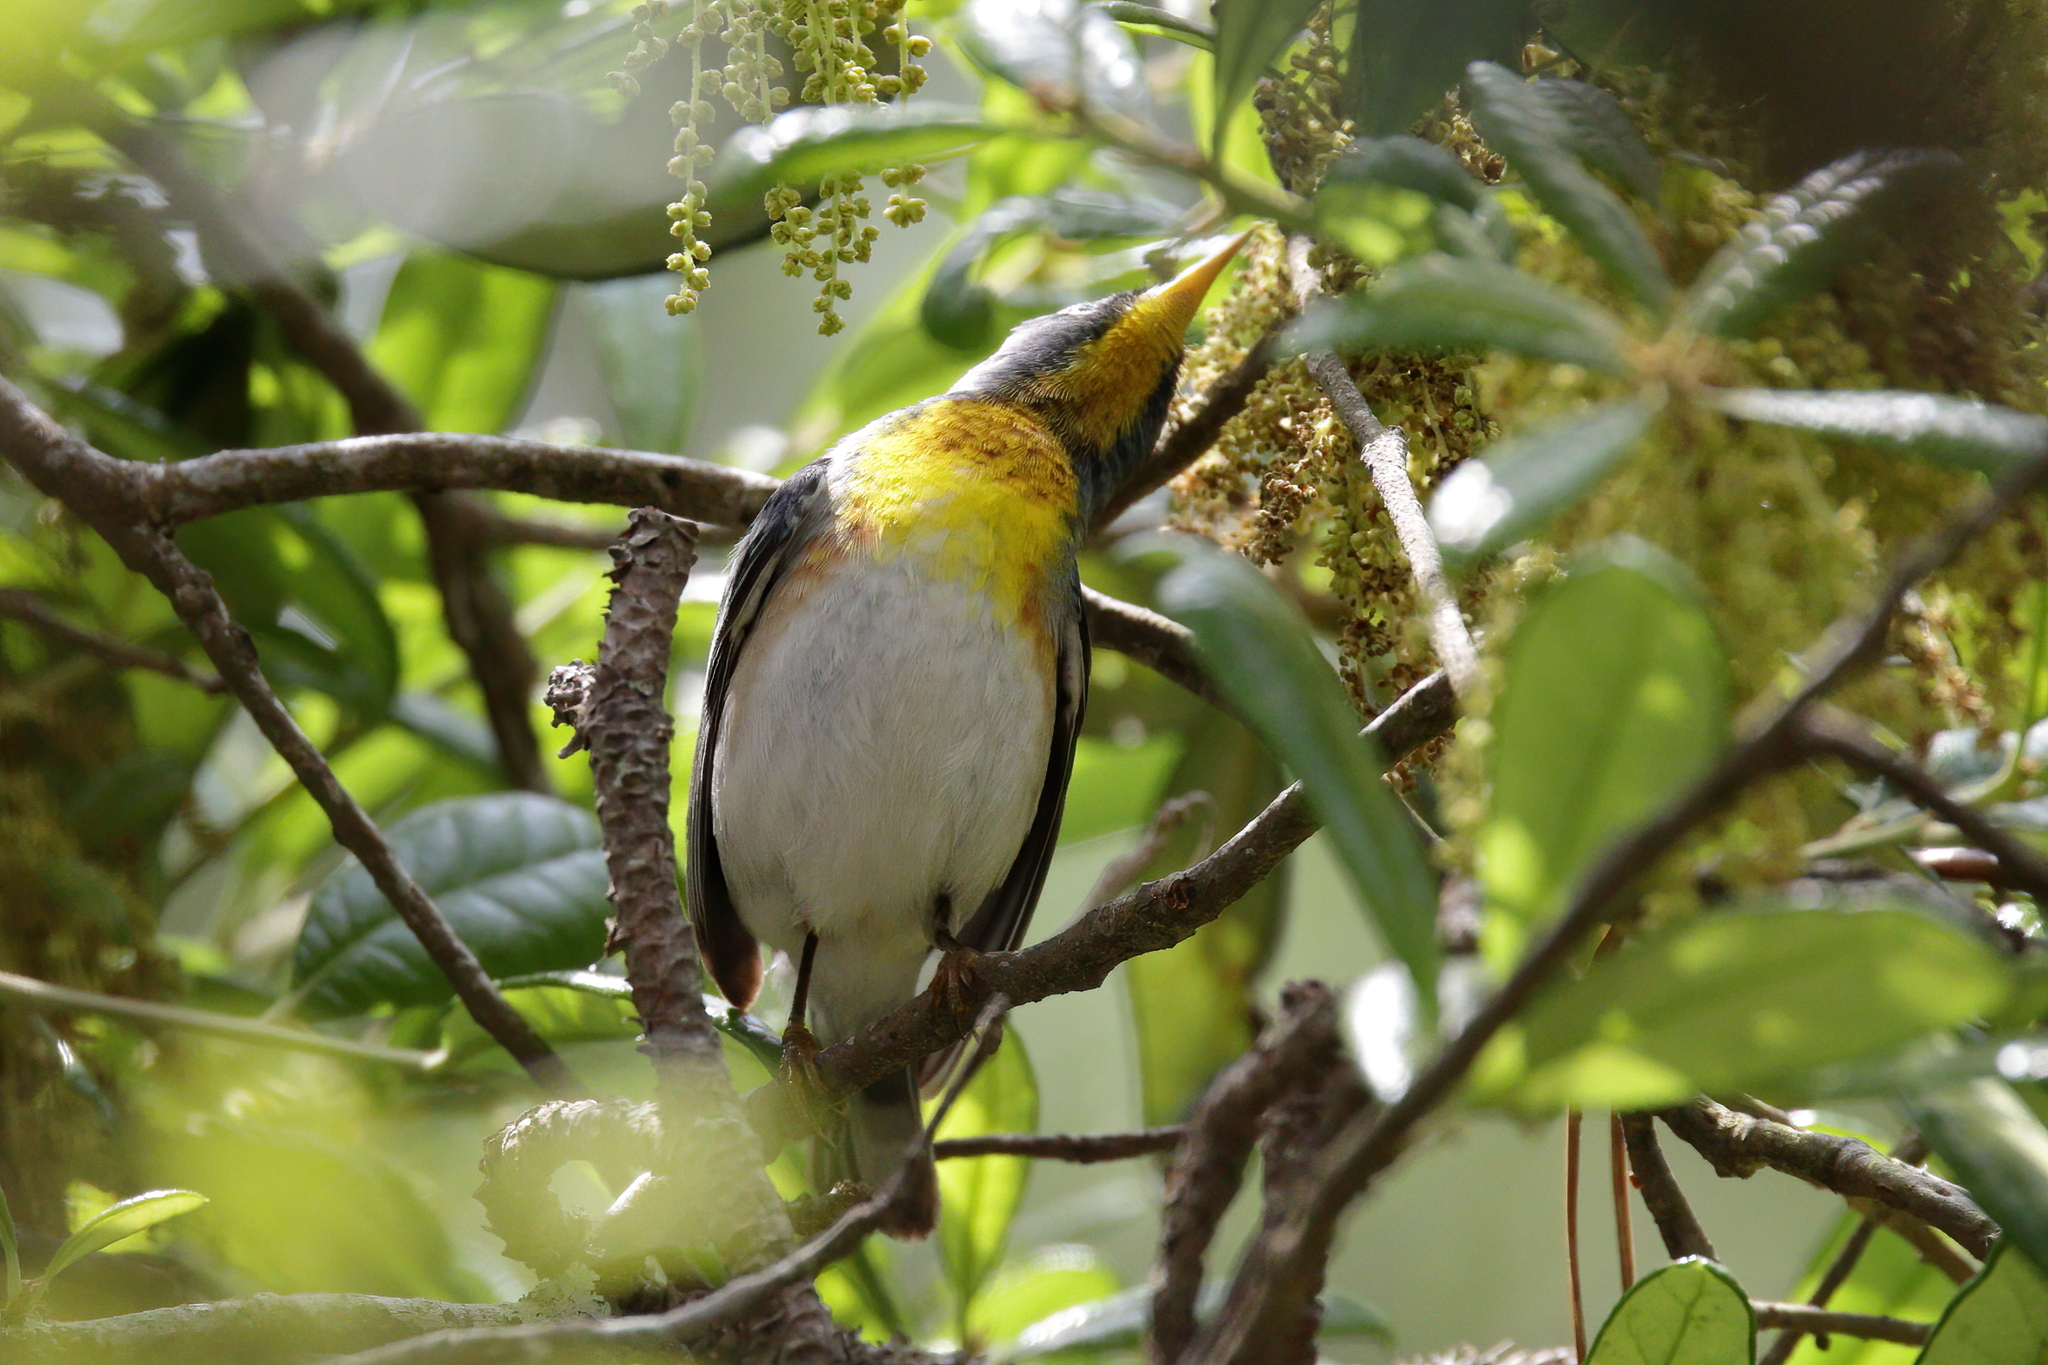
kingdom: Animalia
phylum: Chordata
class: Aves
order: Passeriformes
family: Parulidae
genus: Setophaga
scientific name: Setophaga americana
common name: Northern parula
